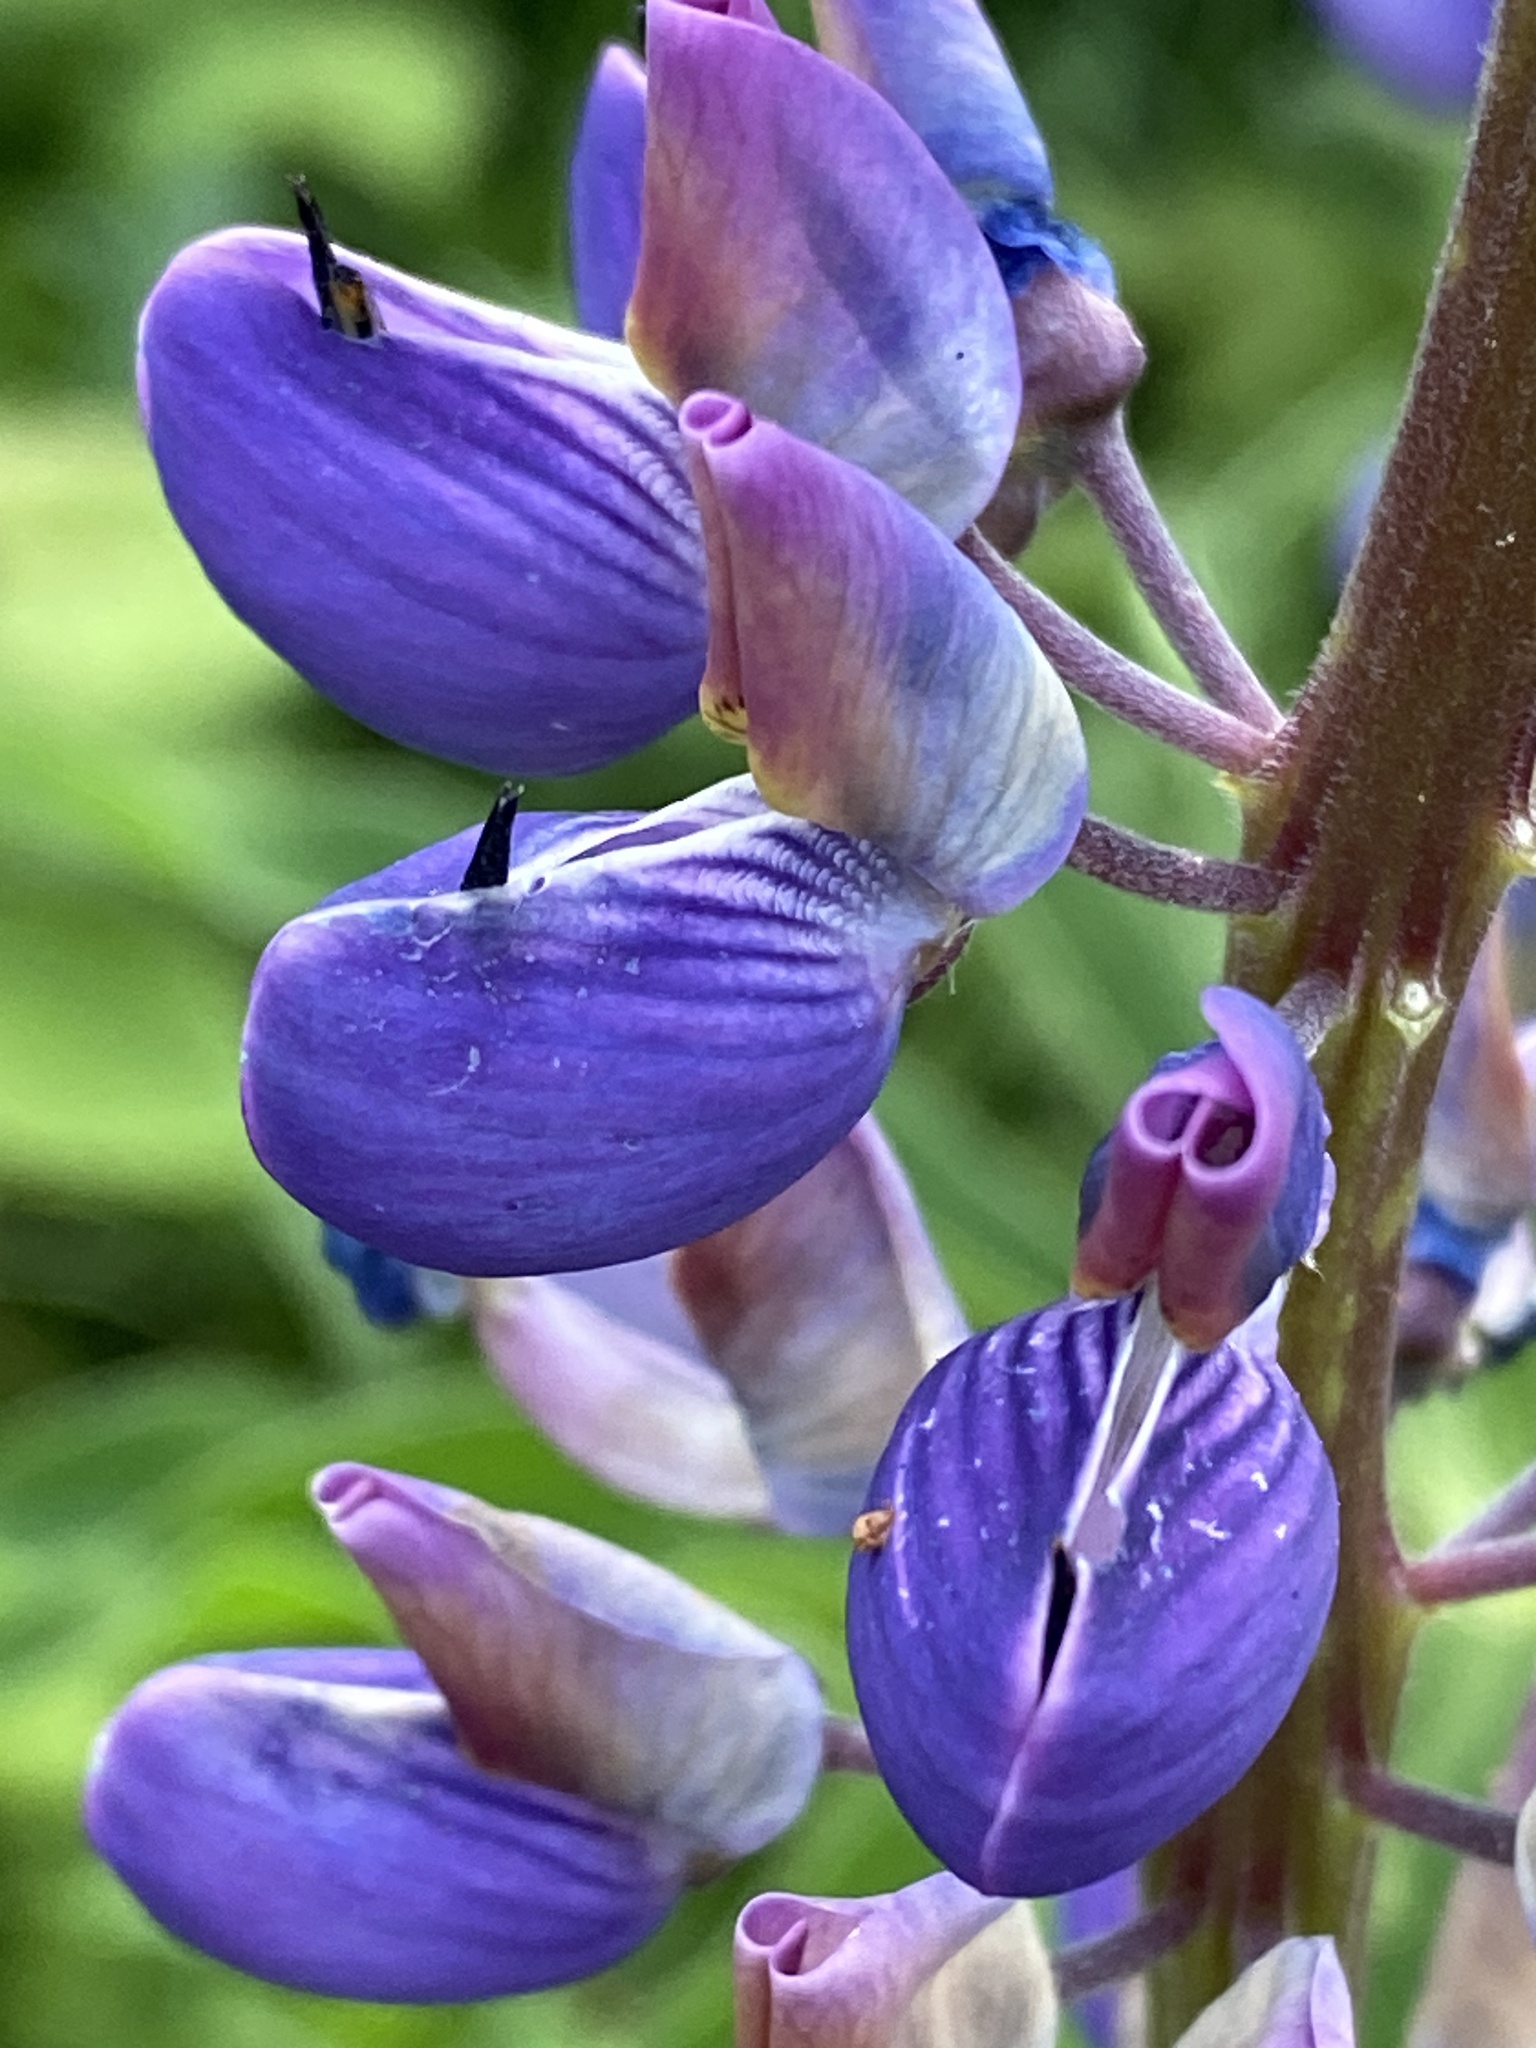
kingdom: Plantae
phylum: Tracheophyta
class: Magnoliopsida
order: Fabales
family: Fabaceae
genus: Lupinus
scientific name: Lupinus polyphyllus
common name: Garden lupin
